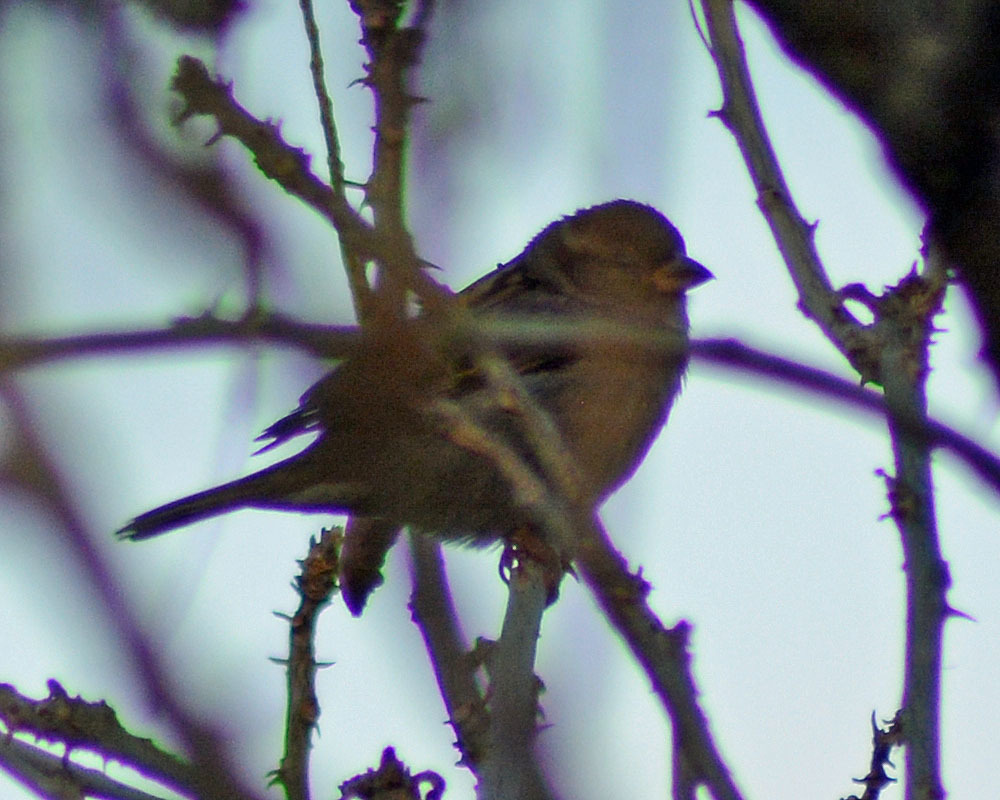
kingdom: Animalia
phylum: Chordata
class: Aves
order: Passeriformes
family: Passeridae
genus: Passer
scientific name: Passer domesticus
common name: House sparrow
